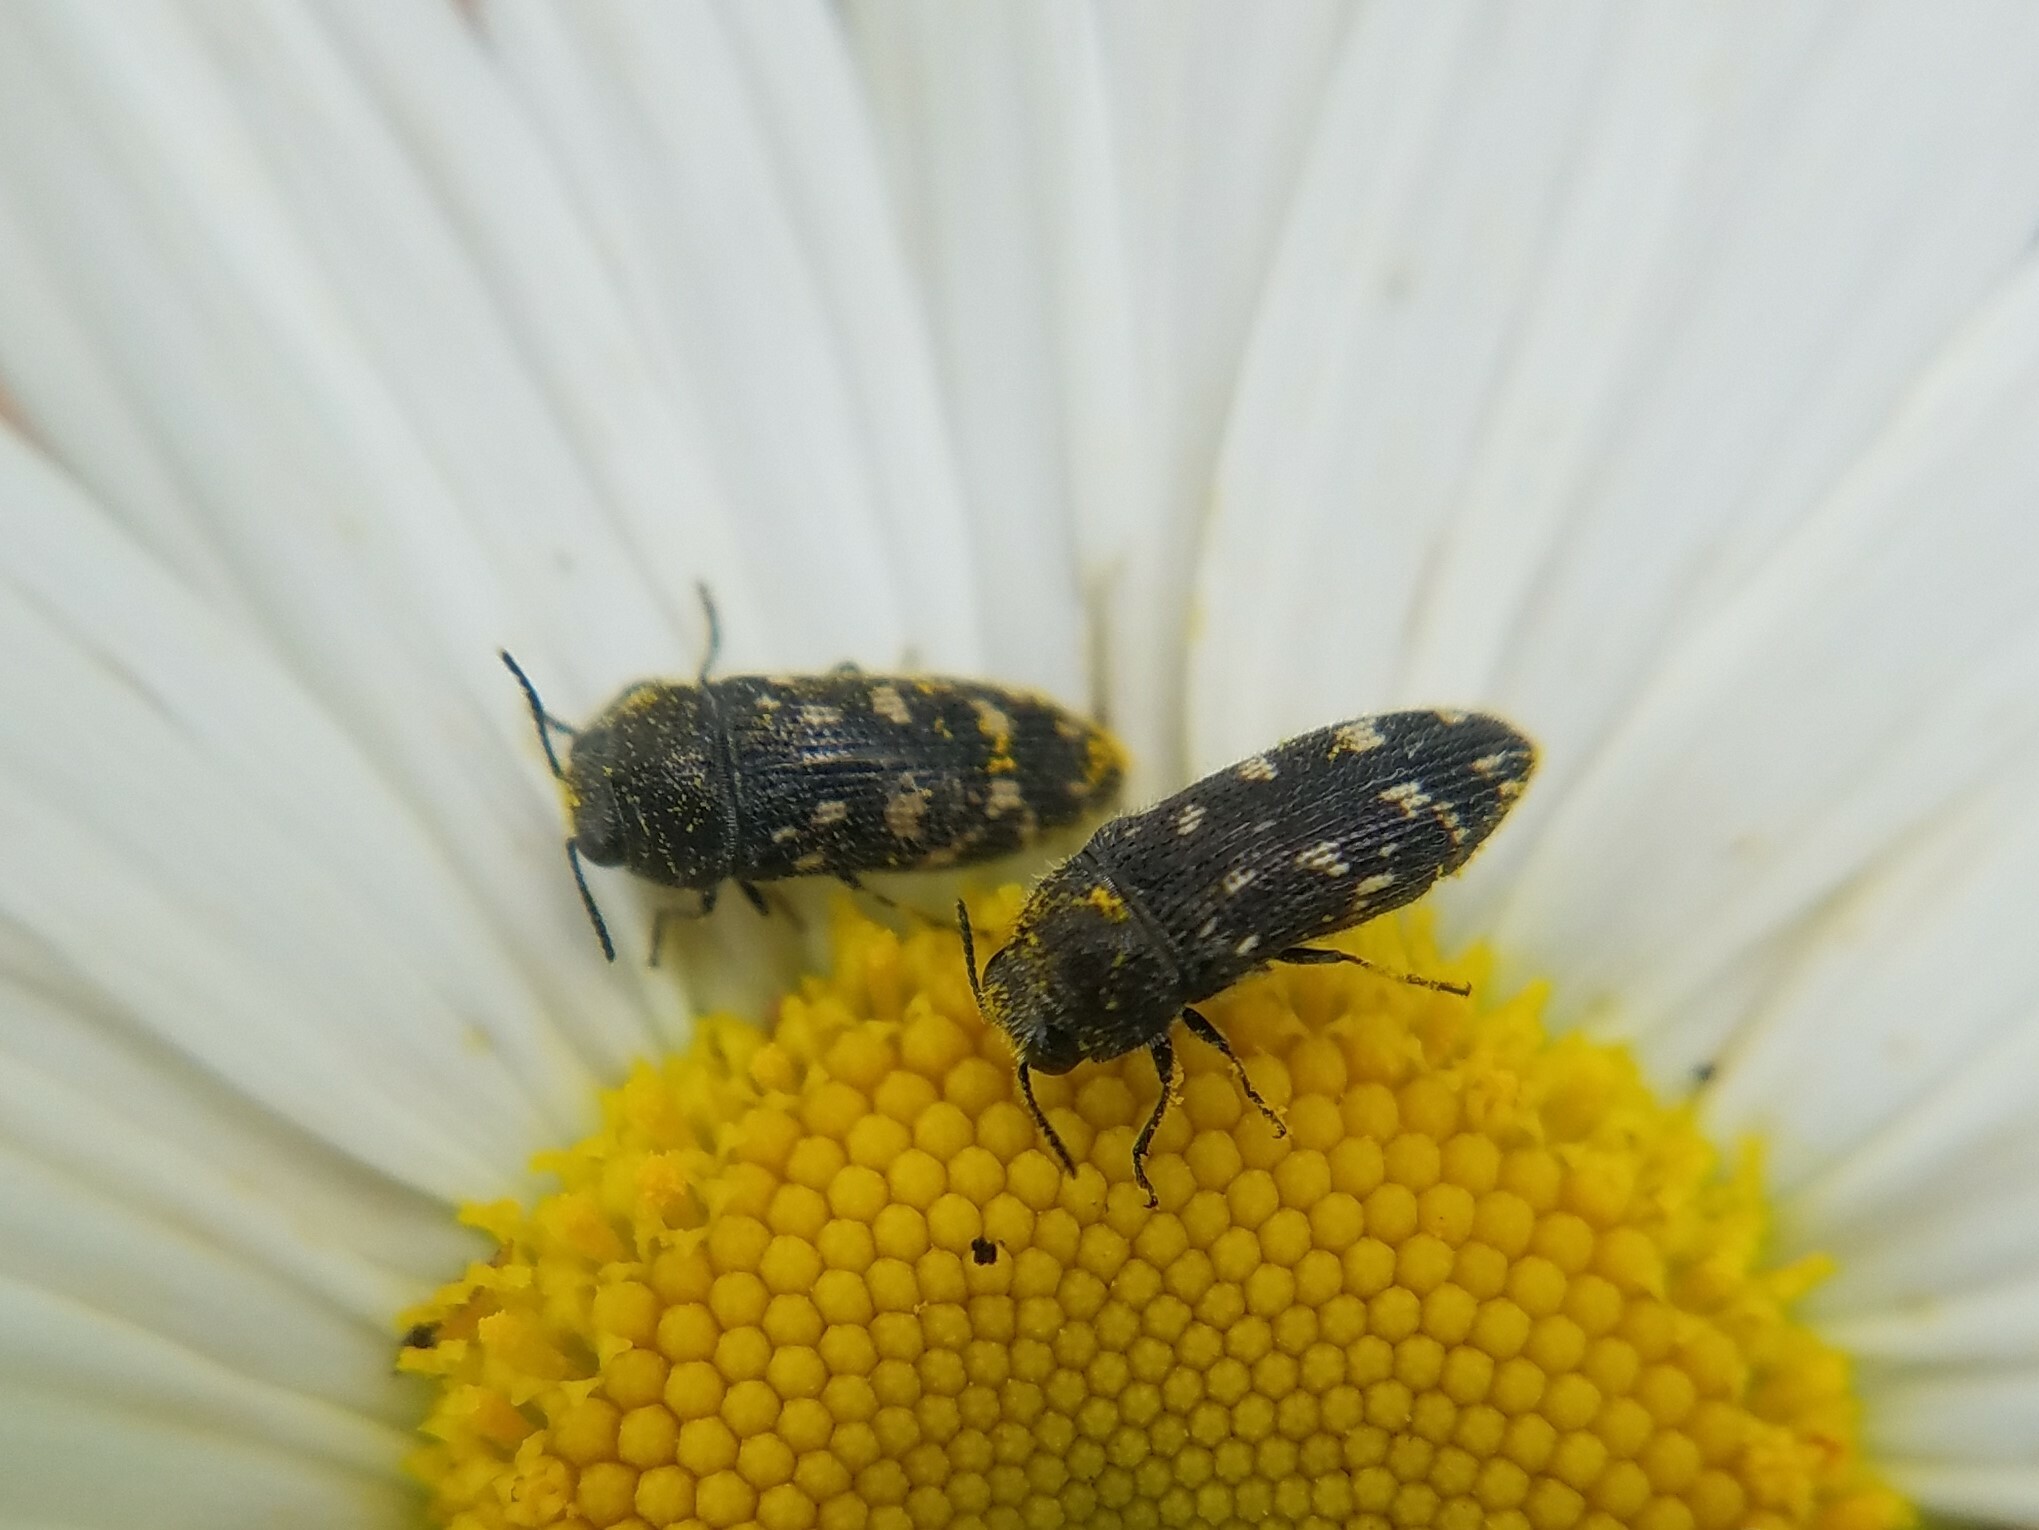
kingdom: Animalia
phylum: Arthropoda
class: Insecta
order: Coleoptera
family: Buprestidae
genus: Acmaeodera
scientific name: Acmaeodera tubulus
